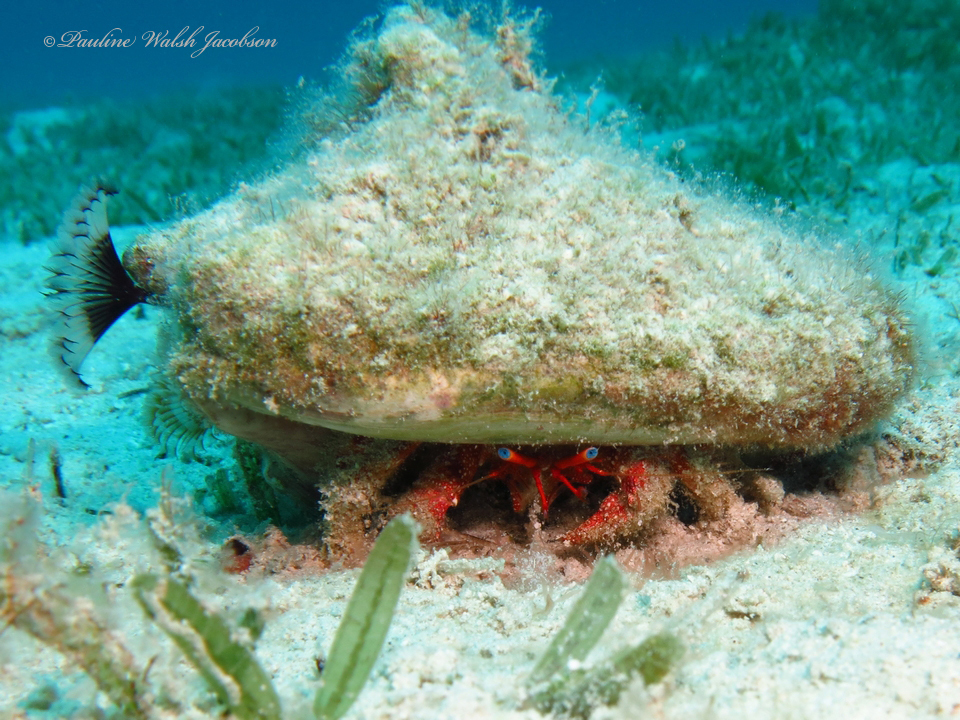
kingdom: Animalia
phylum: Arthropoda
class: Malacostraca
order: Decapoda
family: Diogenidae
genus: Paguristes
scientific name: Paguristes sericeus
